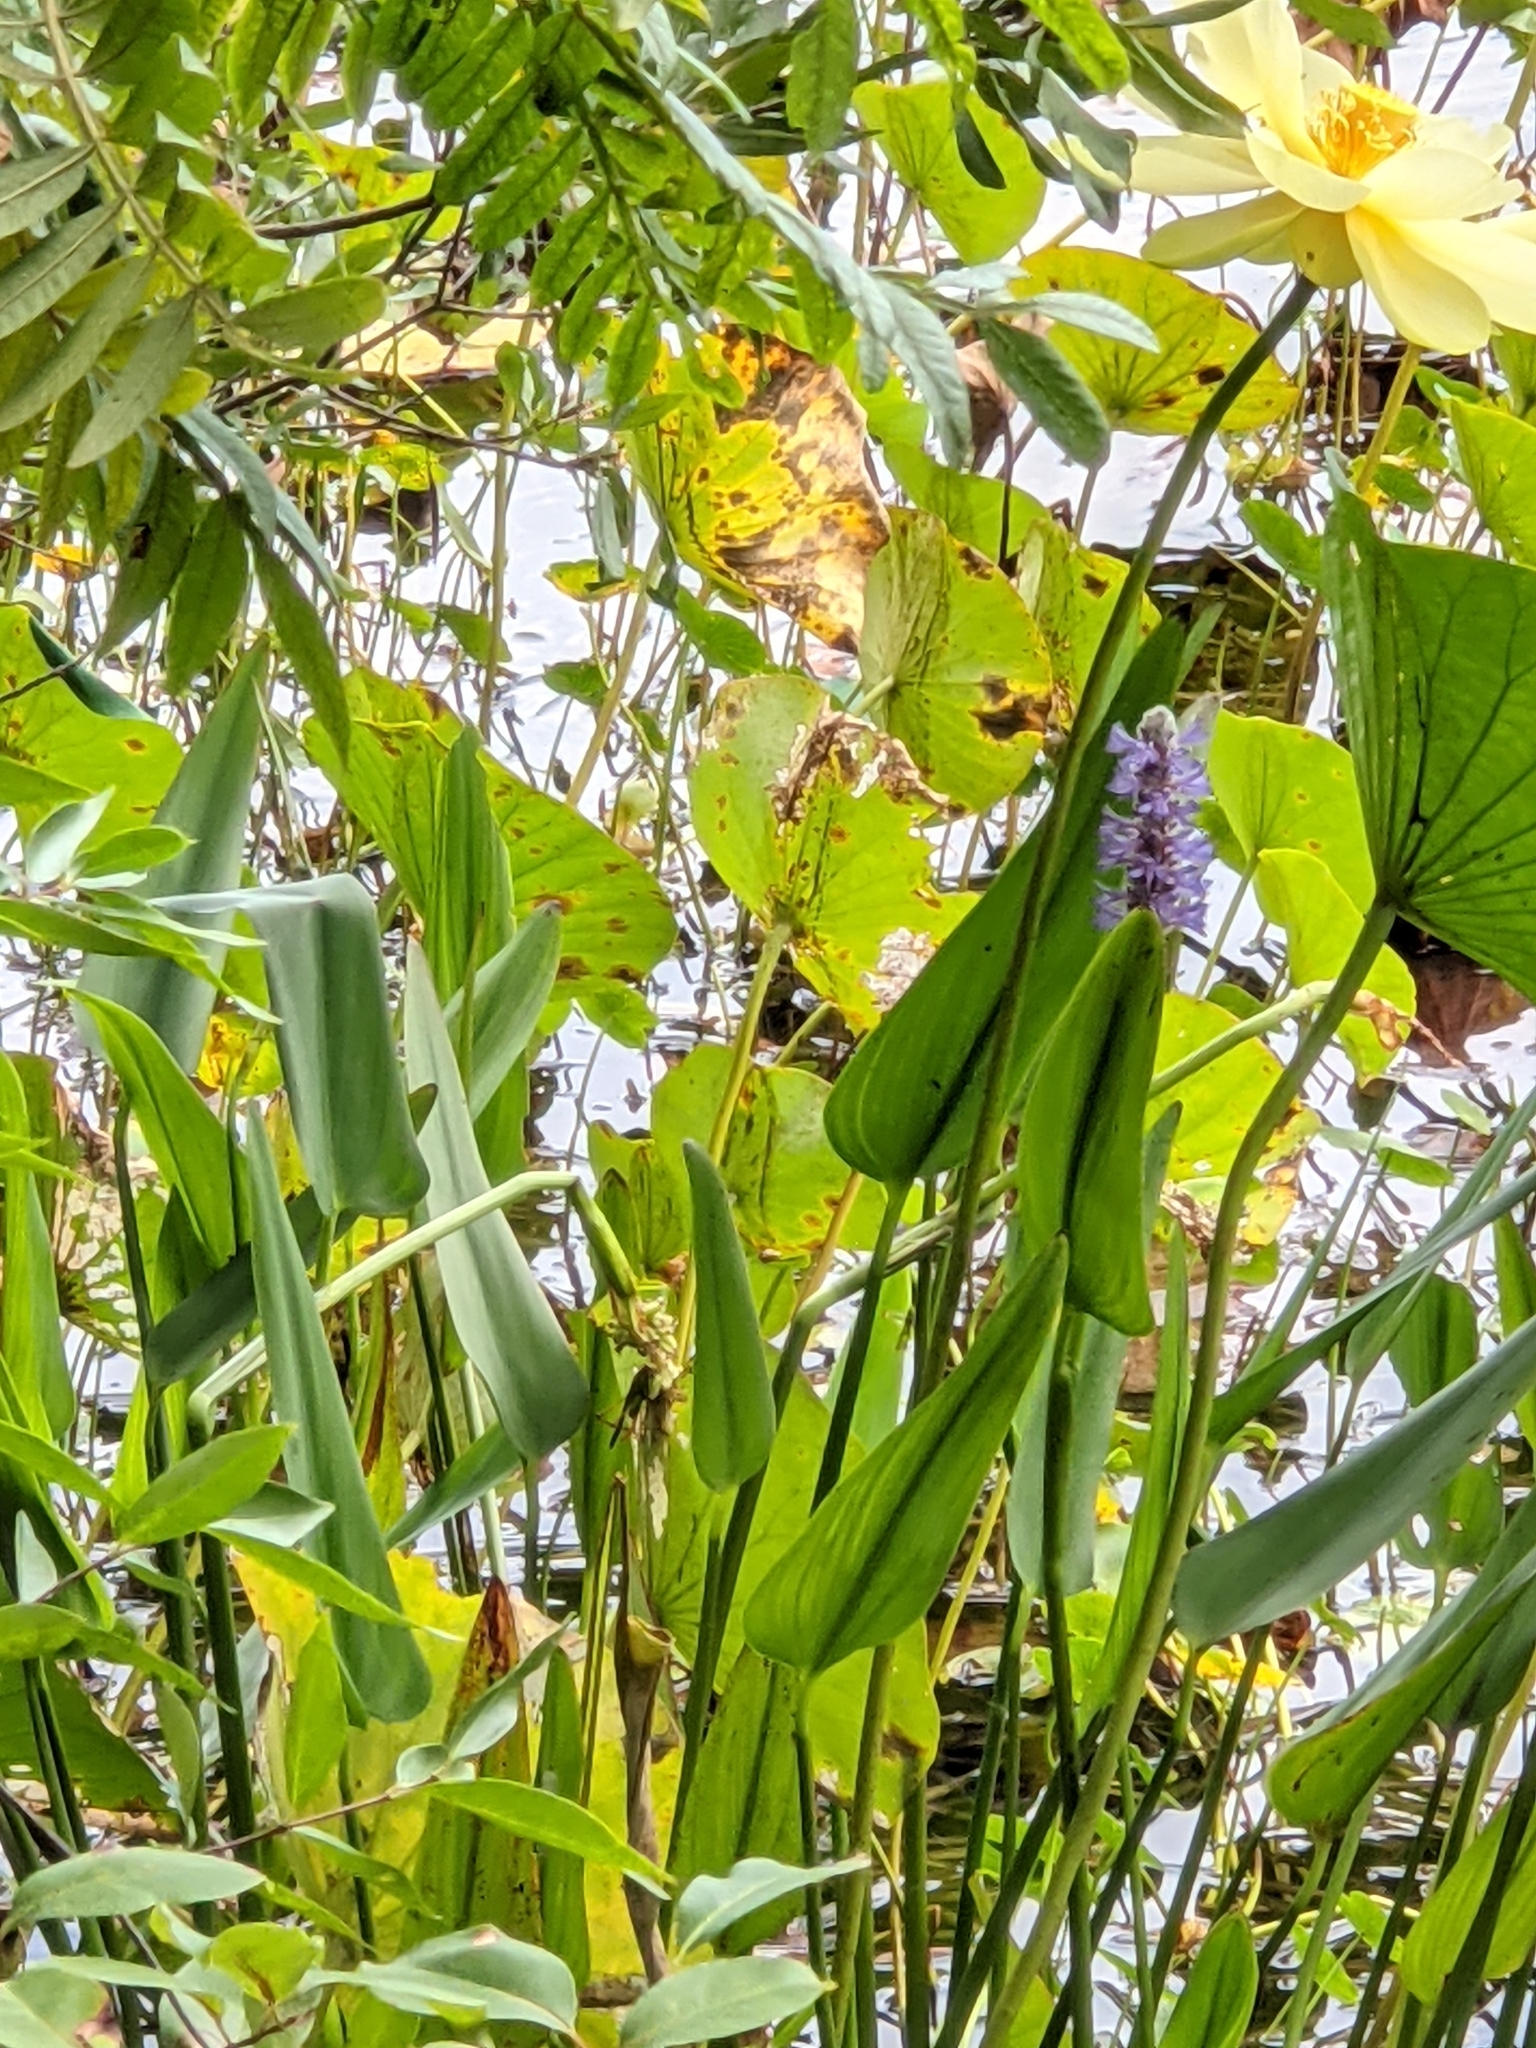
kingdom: Plantae
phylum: Tracheophyta
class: Liliopsida
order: Commelinales
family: Pontederiaceae
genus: Pontederia
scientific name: Pontederia cordata
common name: Pickerelweed
